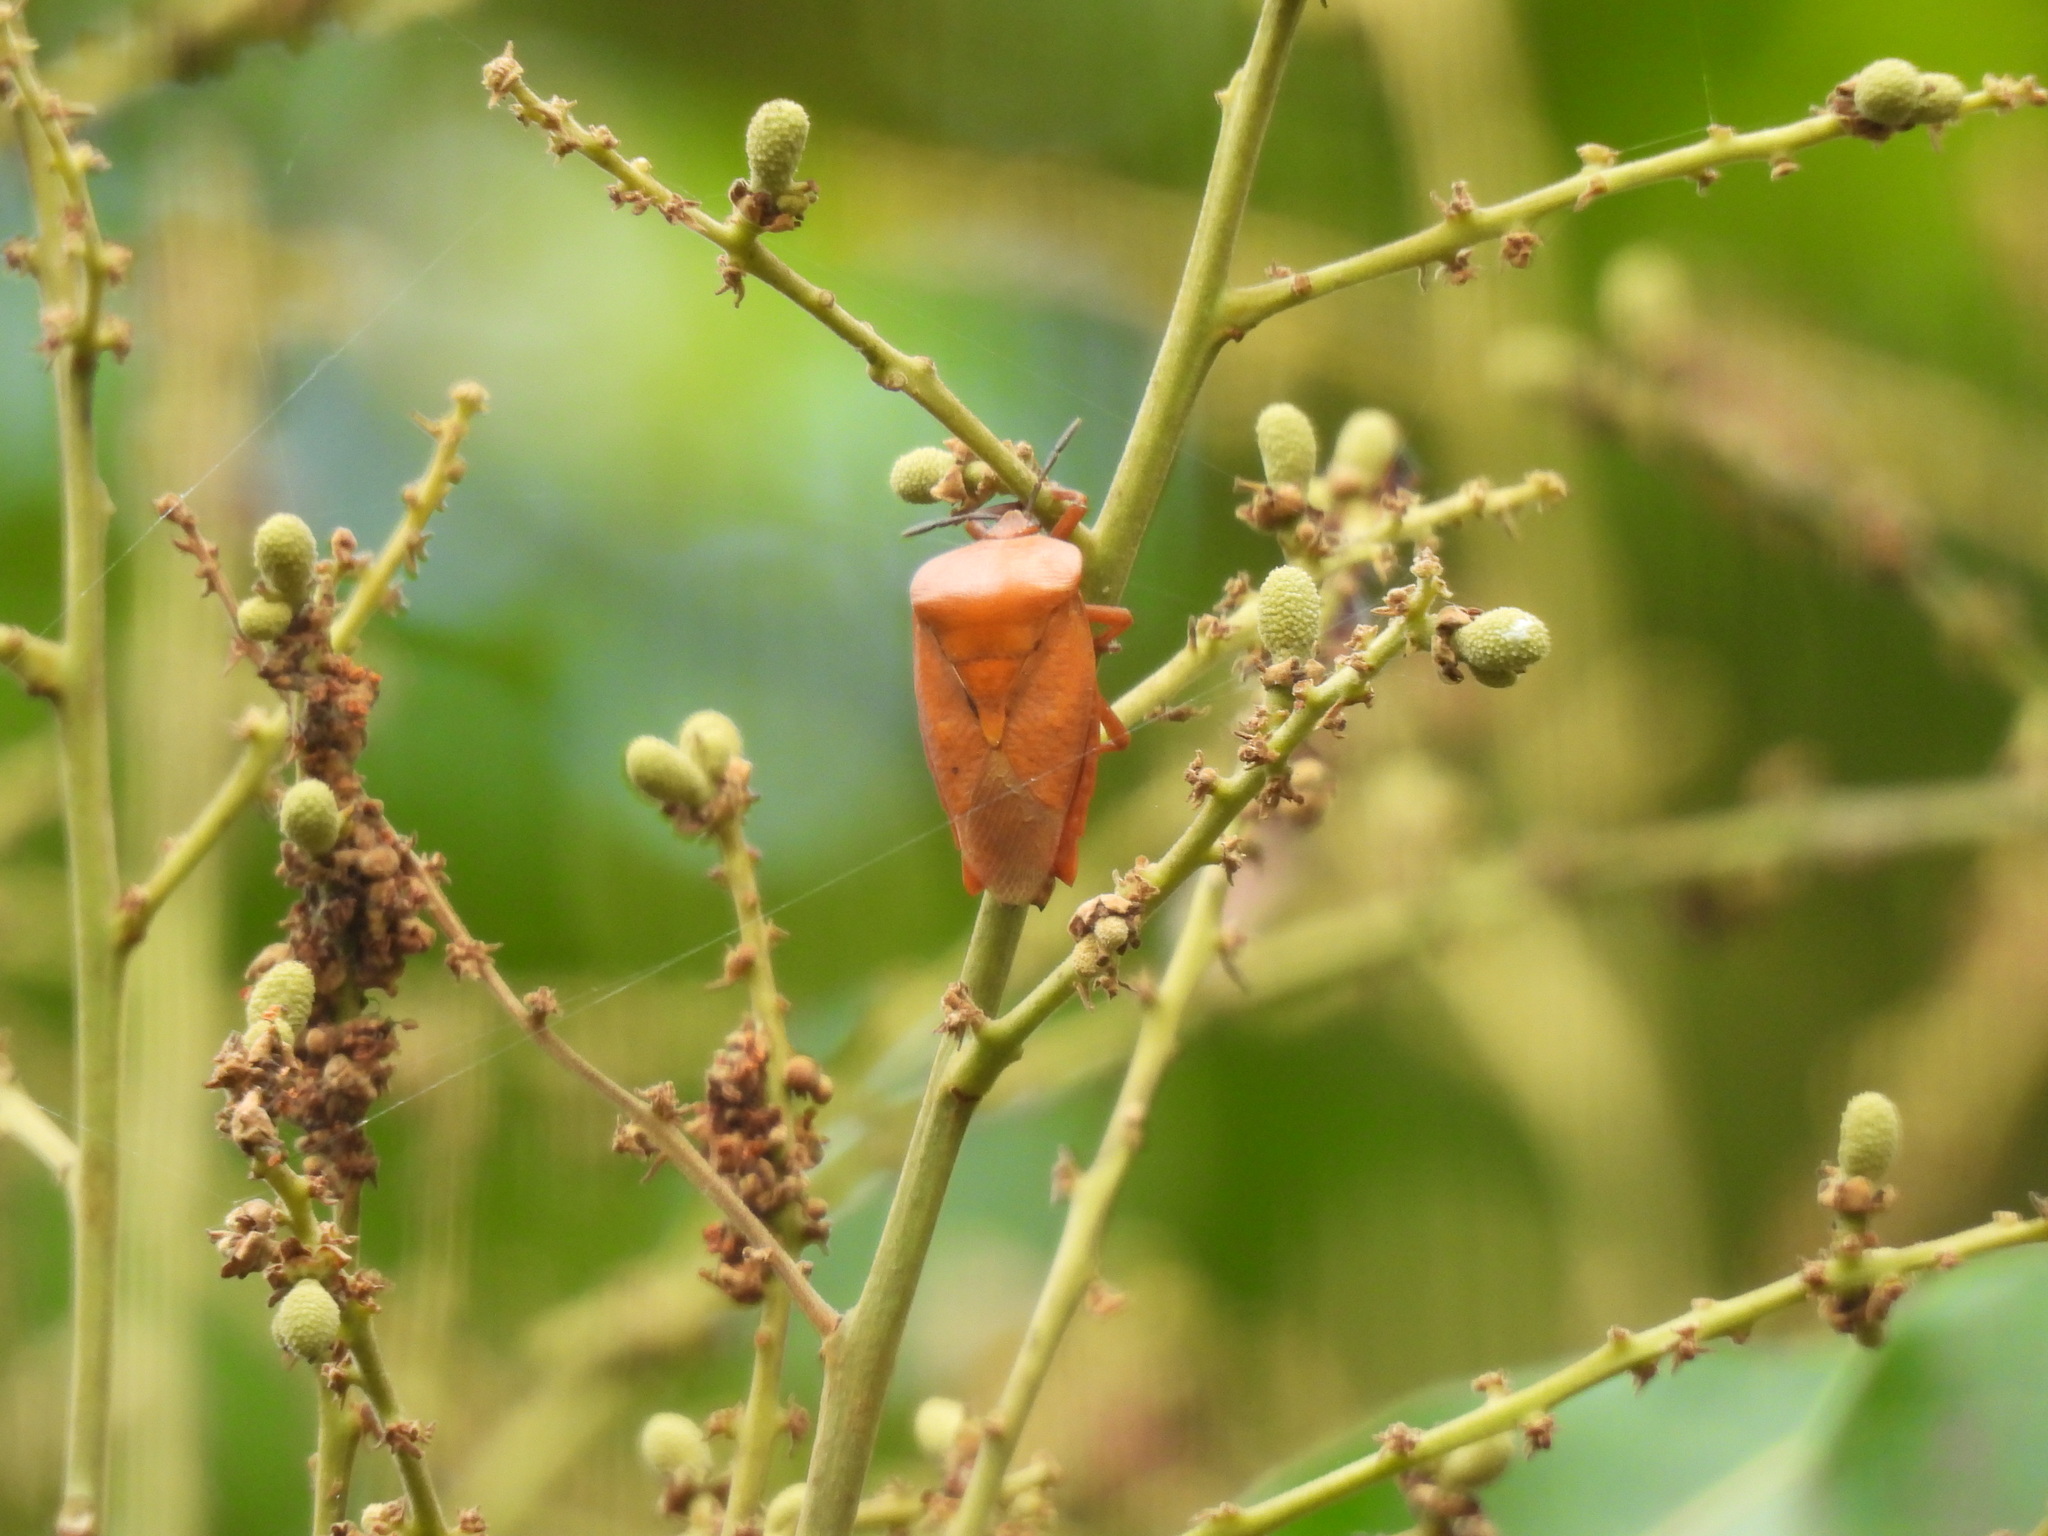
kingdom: Animalia
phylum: Arthropoda
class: Insecta
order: Hemiptera
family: Tessaratomidae
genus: Tessaratoma
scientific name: Tessaratoma papillosa
